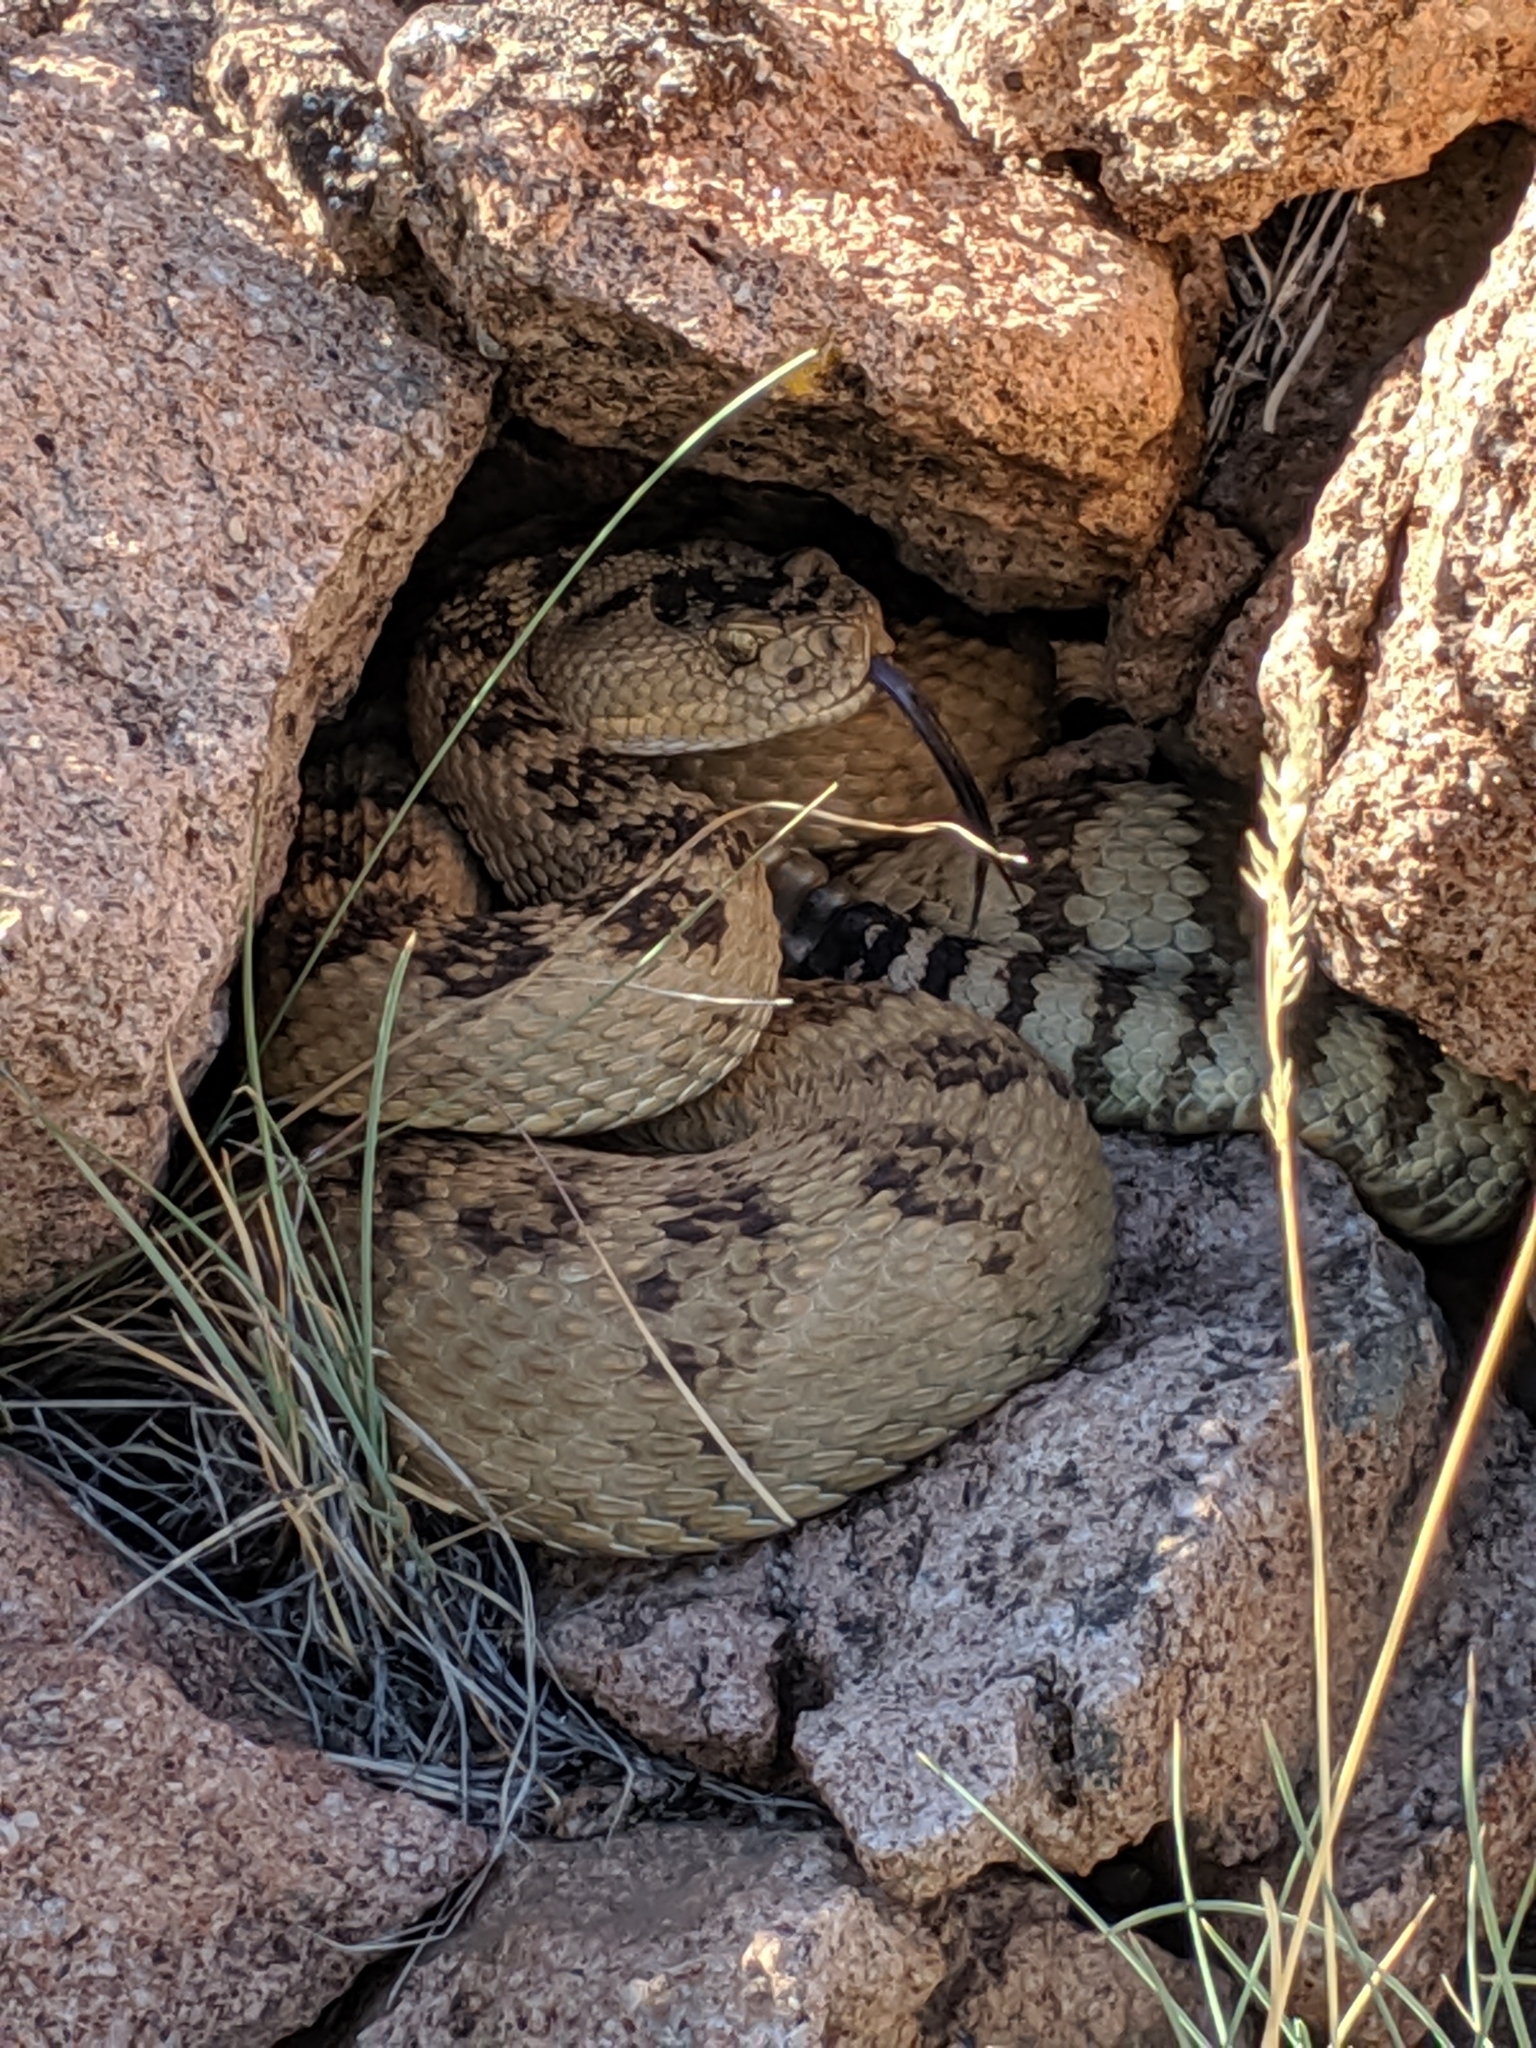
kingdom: Animalia
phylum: Chordata
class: Squamata
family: Viperidae
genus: Crotalus
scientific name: Crotalus oreganus
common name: Abyssus
